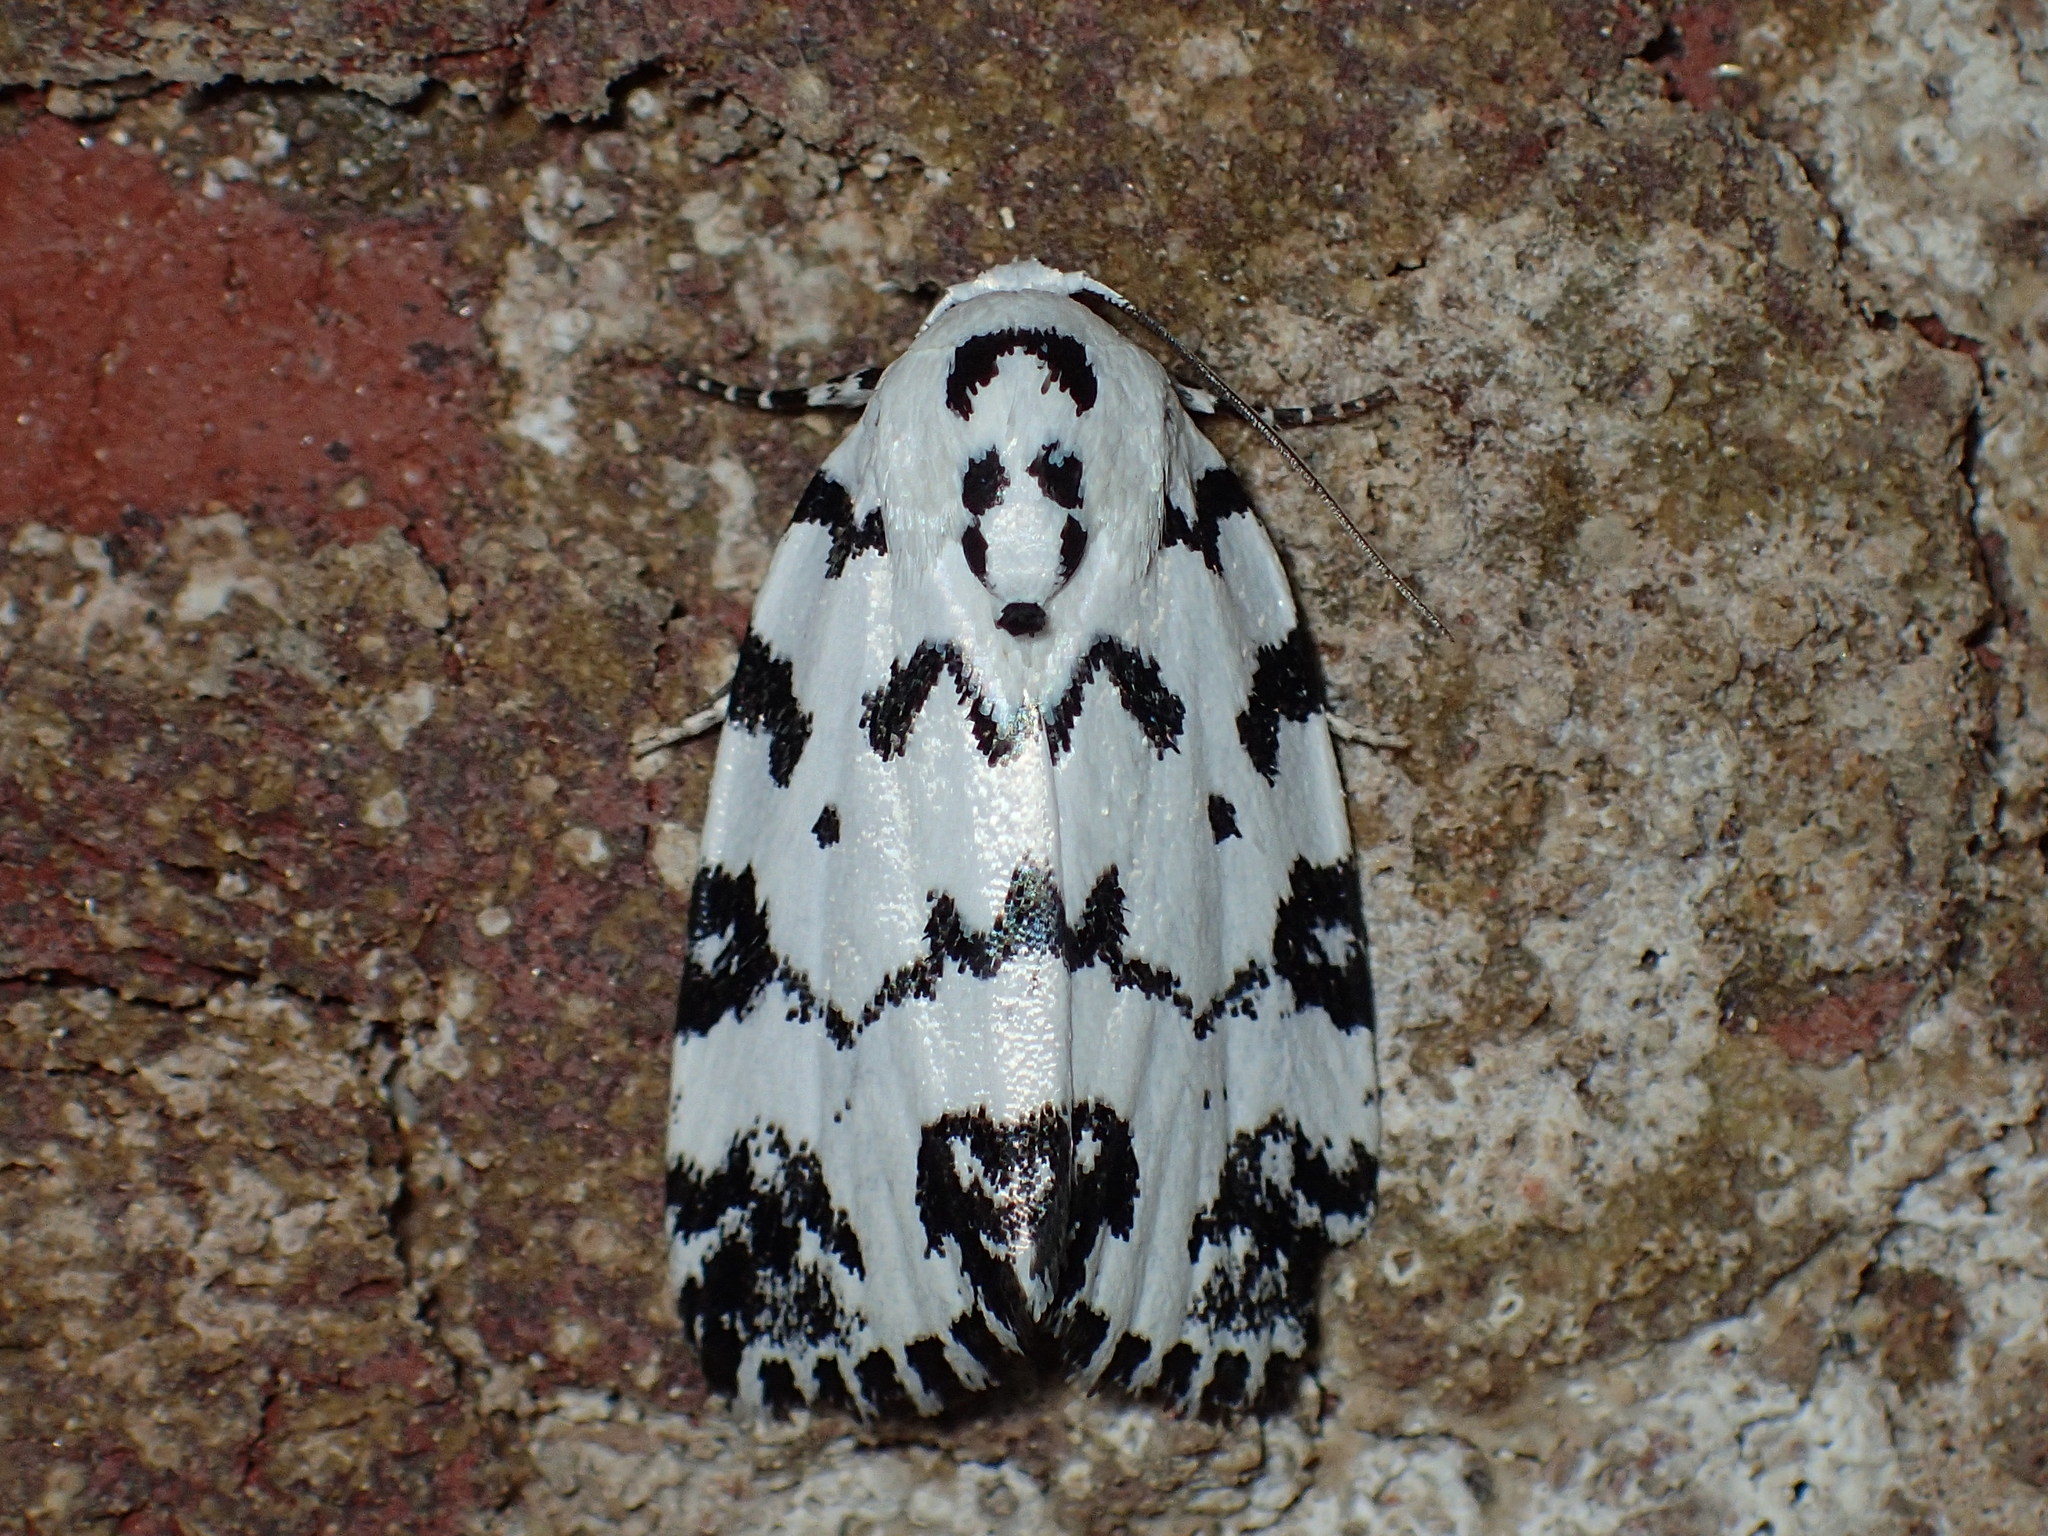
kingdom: Animalia
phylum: Arthropoda
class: Insecta
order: Lepidoptera
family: Noctuidae
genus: Polygrammate
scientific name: Polygrammate hebraeicum
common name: Hebrew moth
